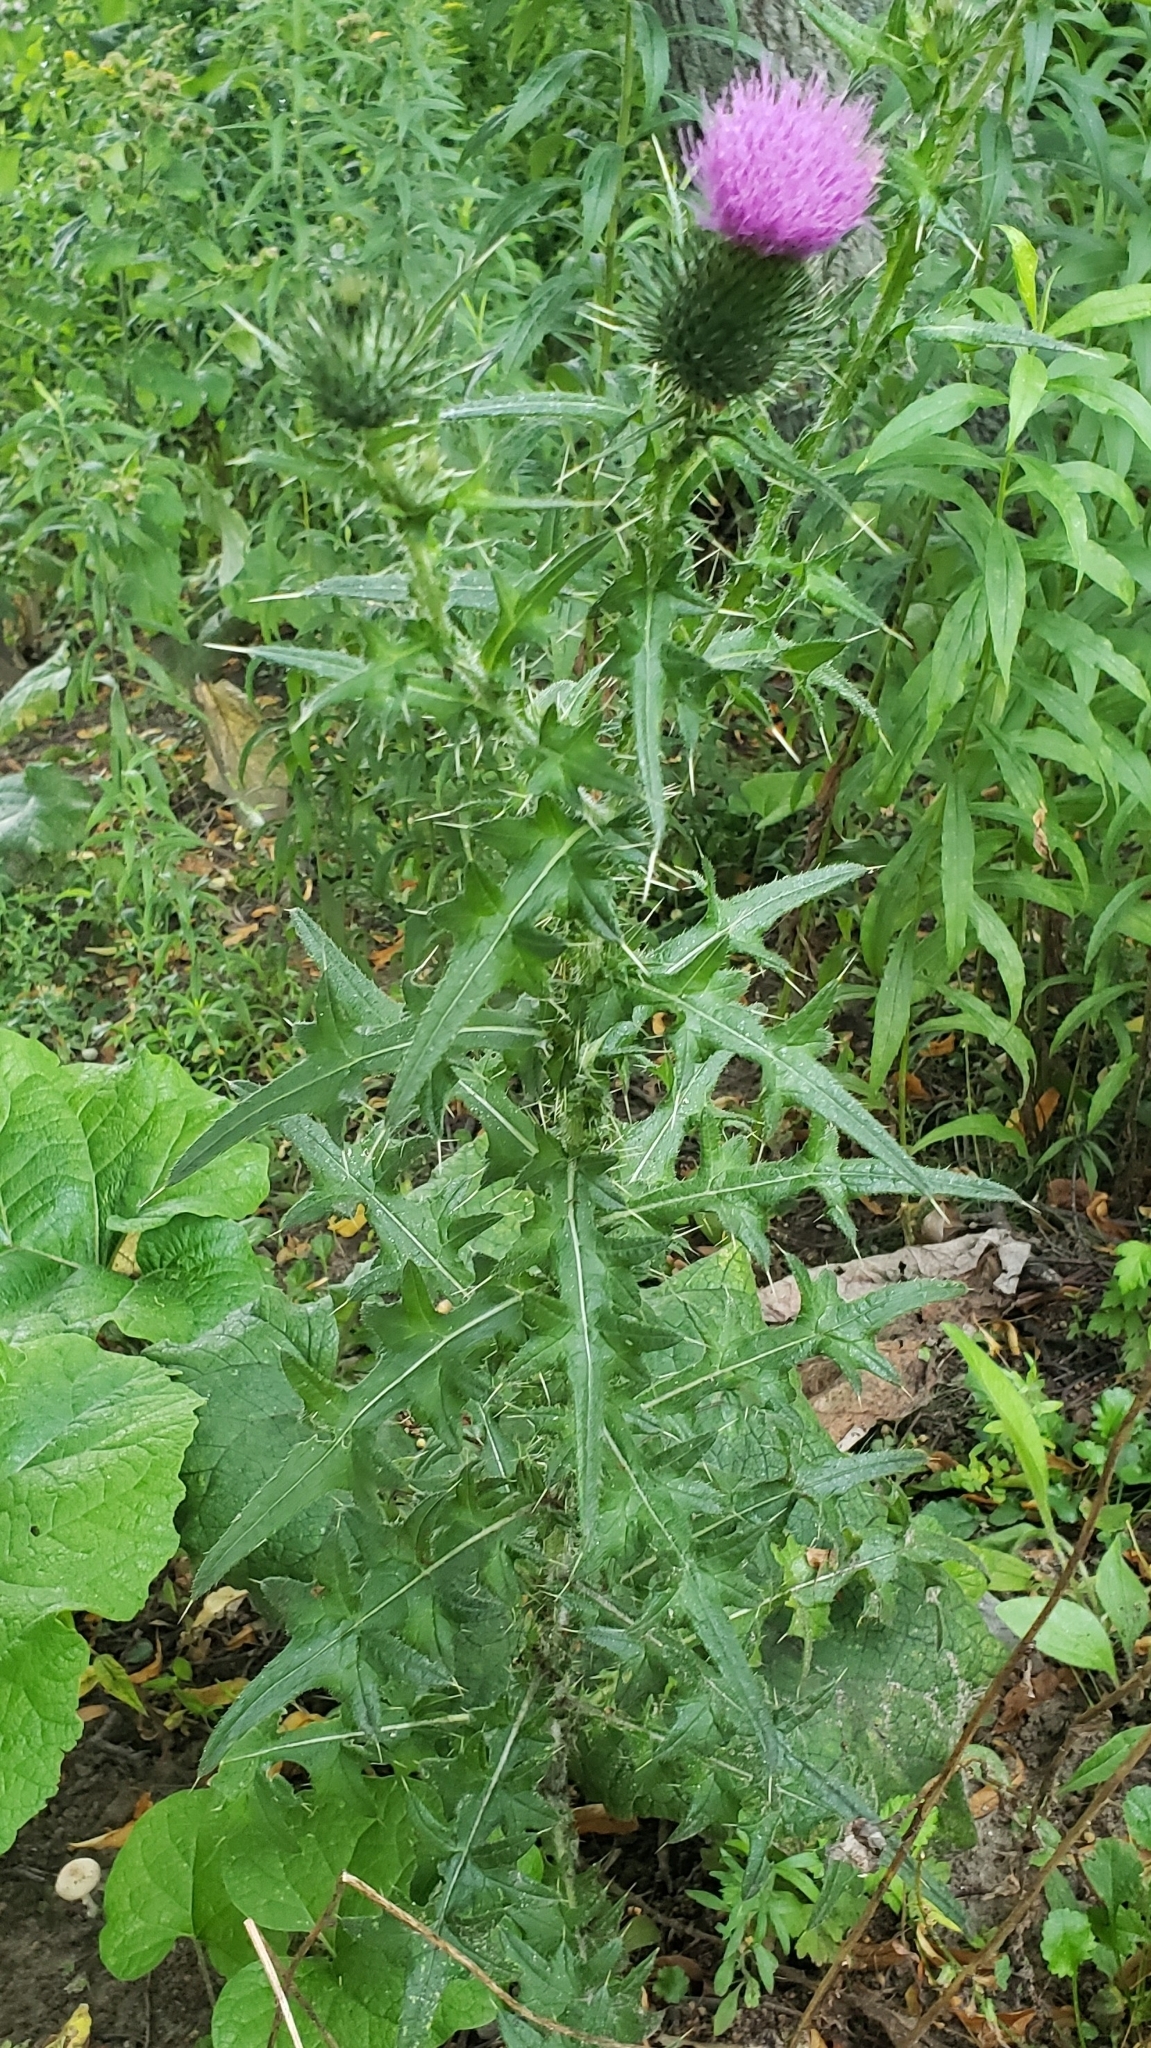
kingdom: Plantae
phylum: Tracheophyta
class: Magnoliopsida
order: Asterales
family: Asteraceae
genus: Cirsium
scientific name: Cirsium vulgare
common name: Bull thistle
